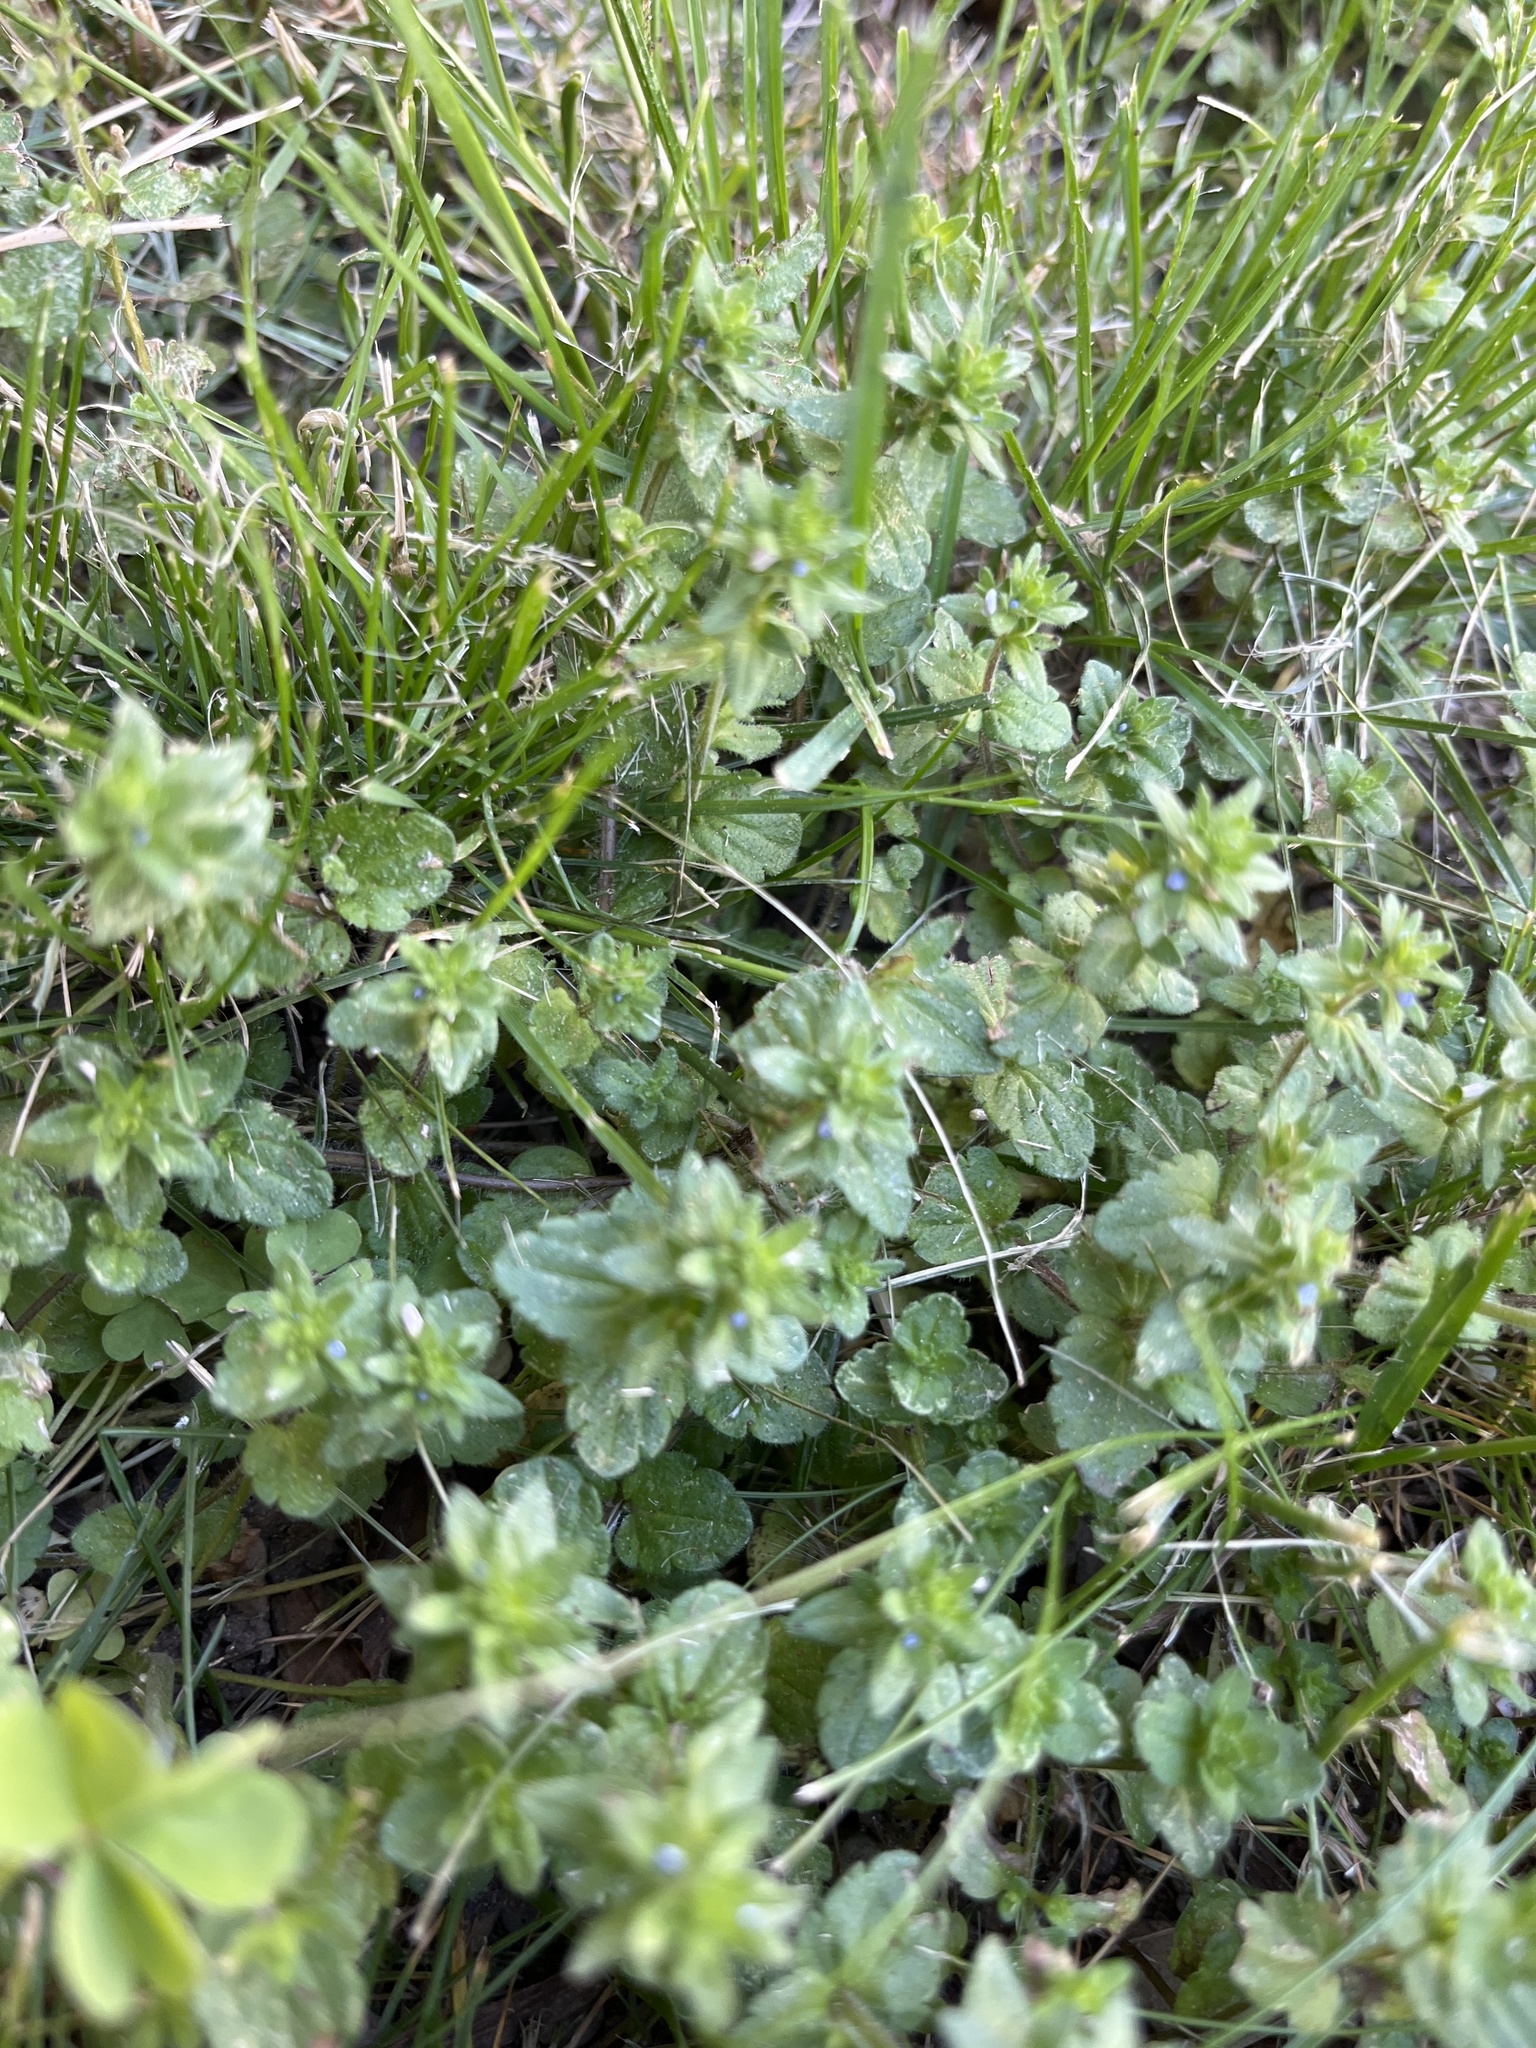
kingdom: Plantae
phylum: Tracheophyta
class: Magnoliopsida
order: Lamiales
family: Plantaginaceae
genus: Veronica
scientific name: Veronica arvensis
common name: Corn speedwell
